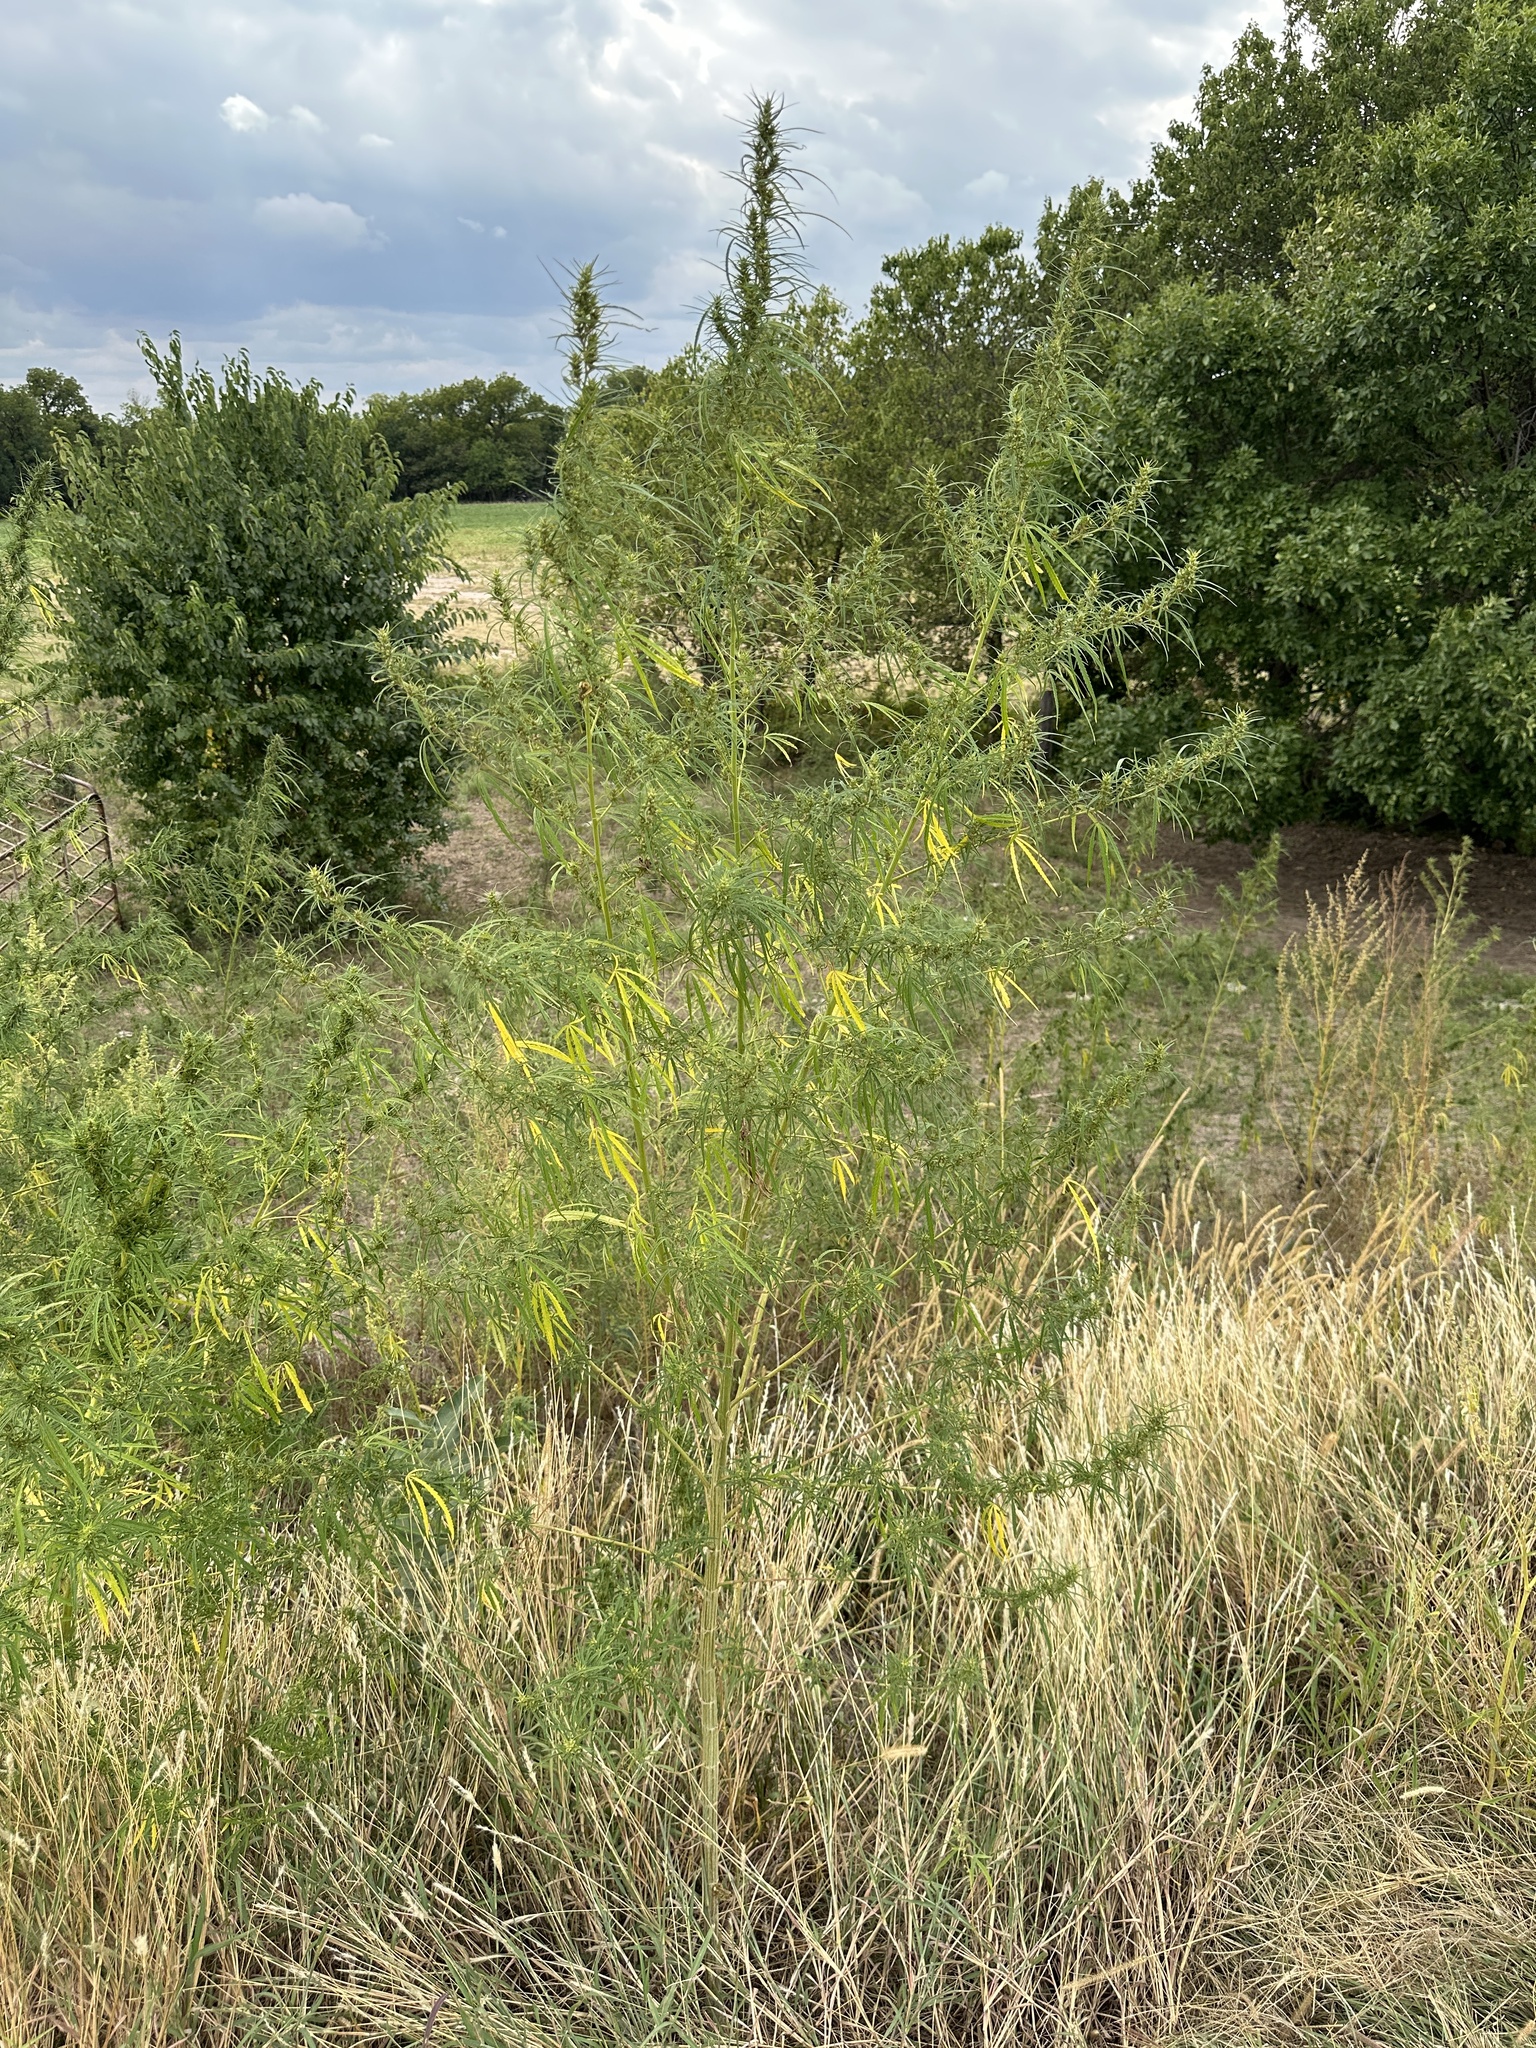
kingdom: Plantae
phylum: Tracheophyta
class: Magnoliopsida
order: Rosales
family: Cannabaceae
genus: Cannabis
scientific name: Cannabis sativa
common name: Hemp
